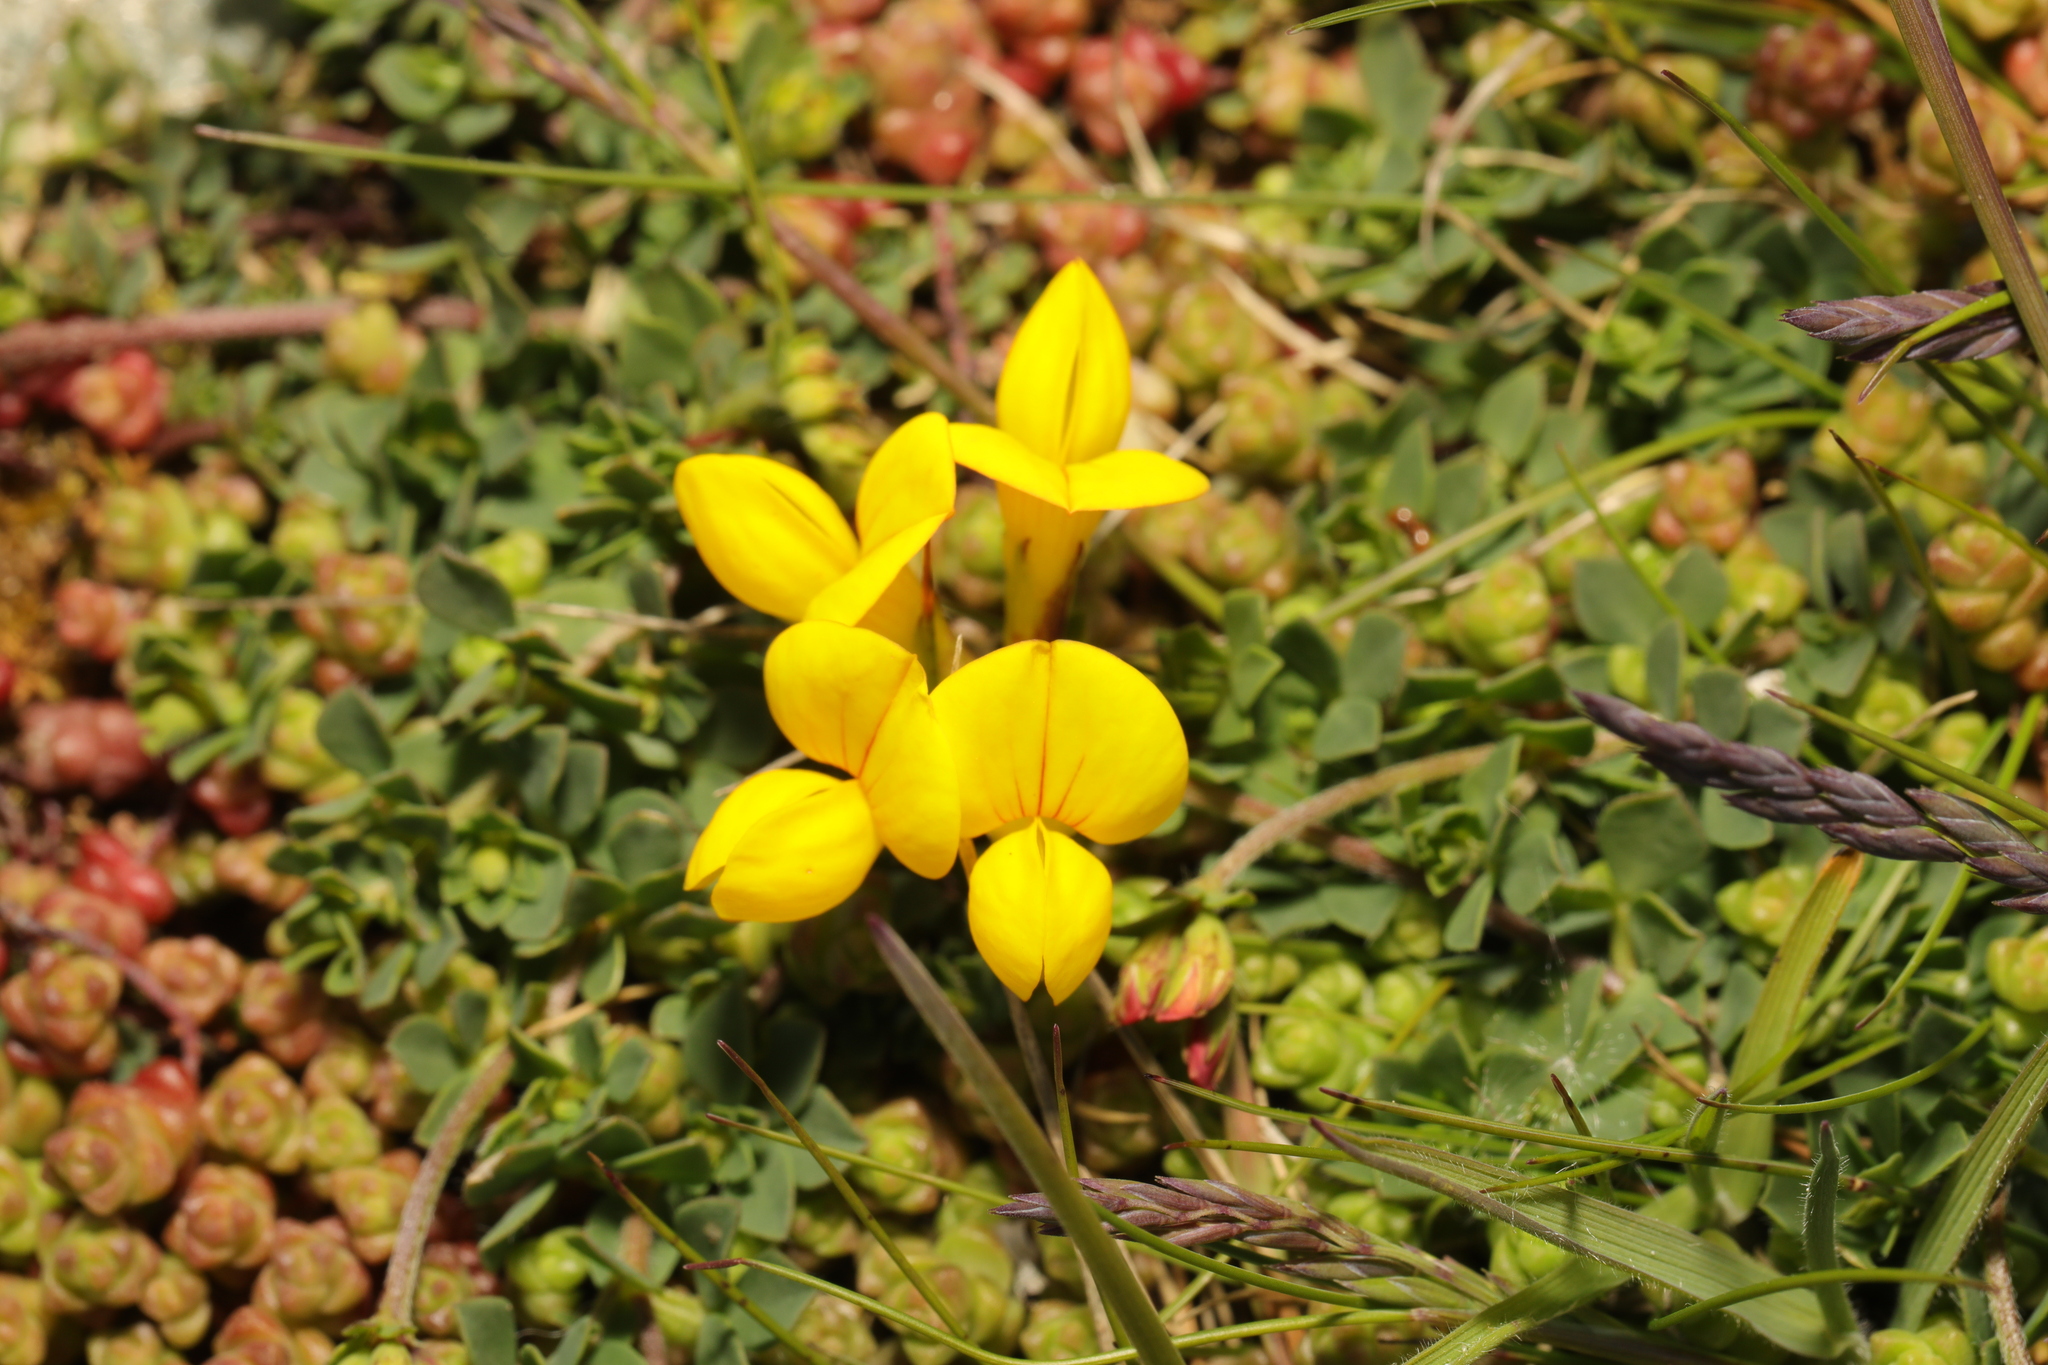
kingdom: Plantae
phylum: Tracheophyta
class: Magnoliopsida
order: Fabales
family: Fabaceae
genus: Lotus
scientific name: Lotus corniculatus
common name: Common bird's-foot-trefoil
